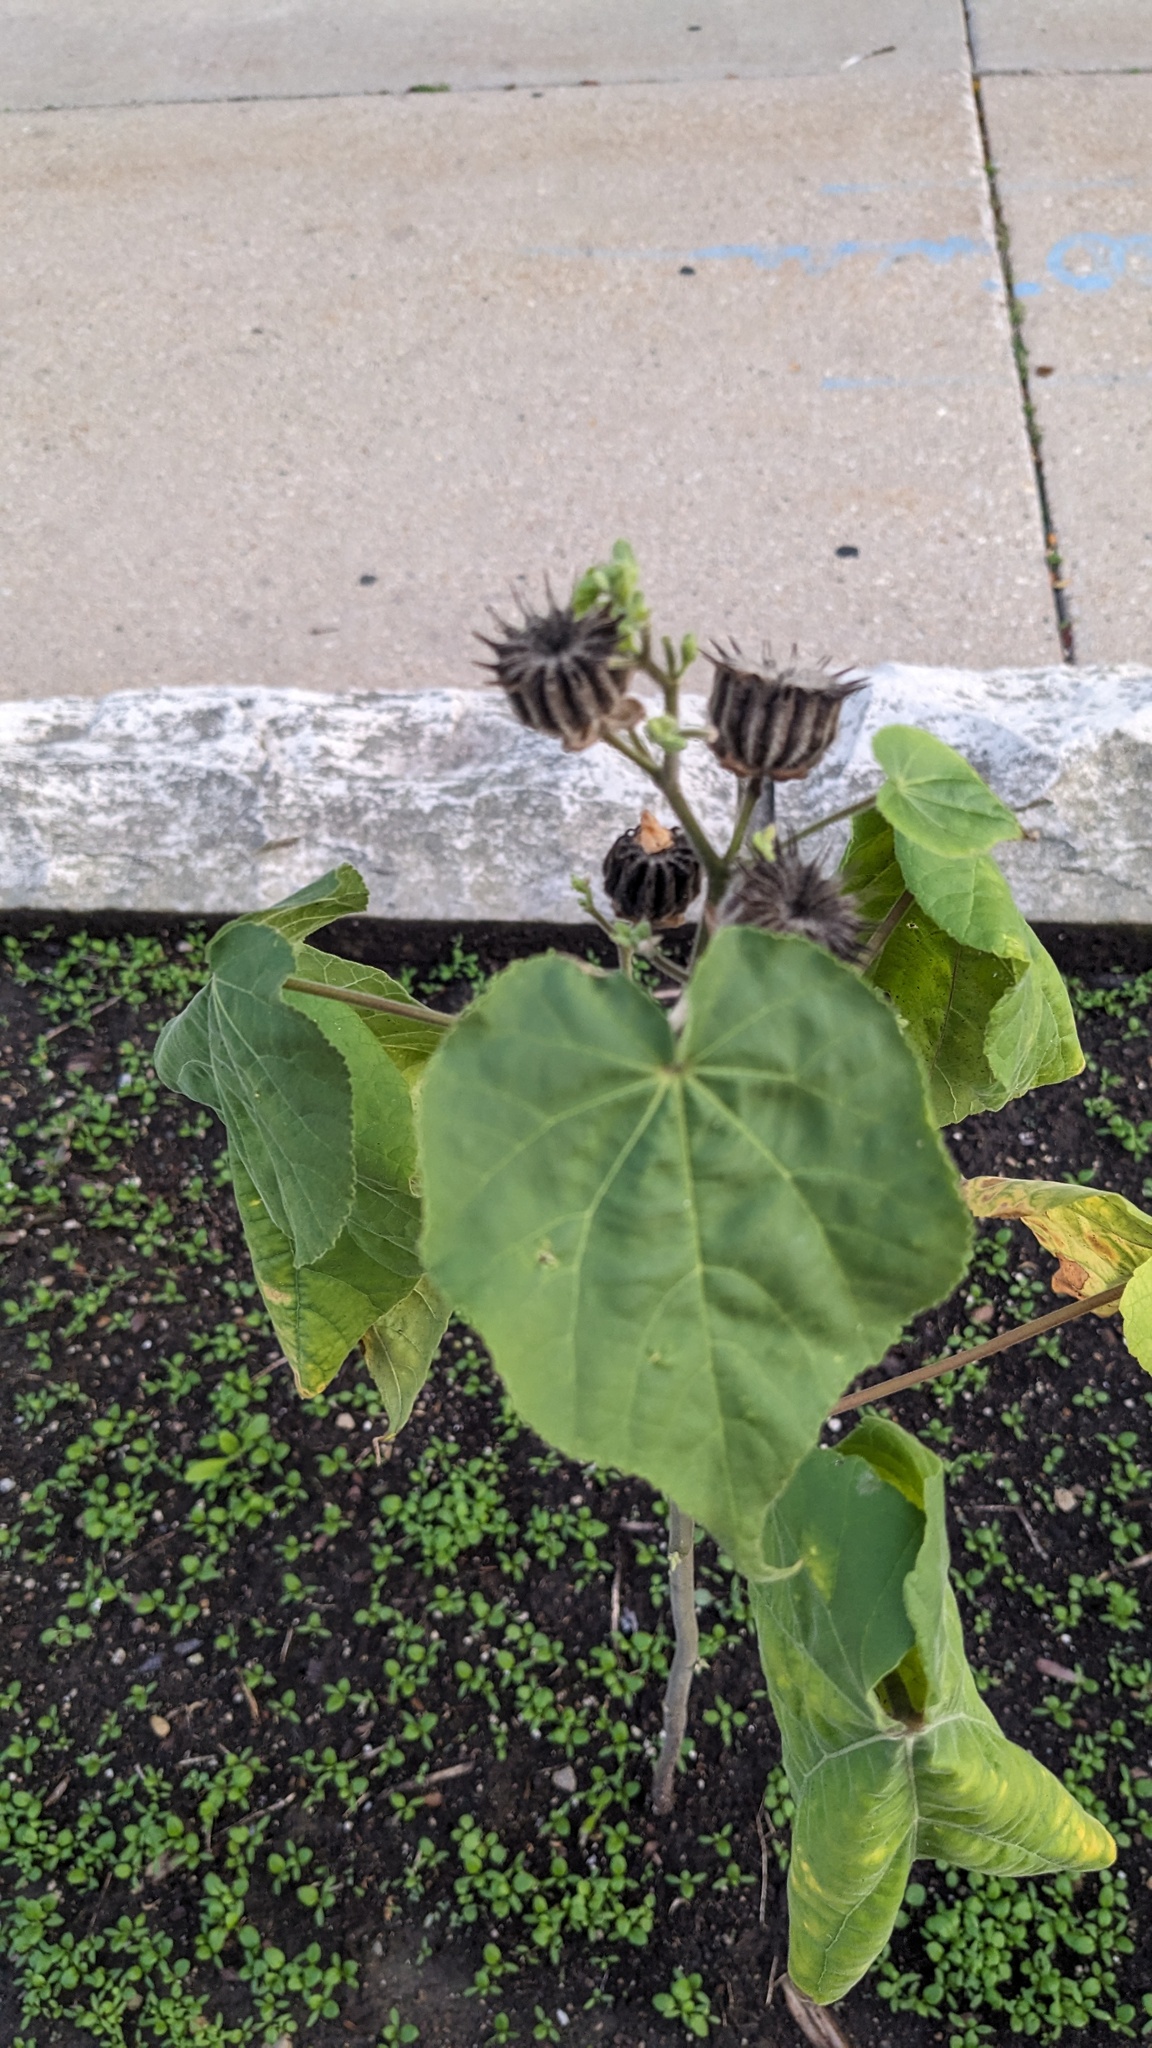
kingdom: Plantae
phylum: Tracheophyta
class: Magnoliopsida
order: Malvales
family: Malvaceae
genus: Abutilon
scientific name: Abutilon theophrasti
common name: Velvetleaf
